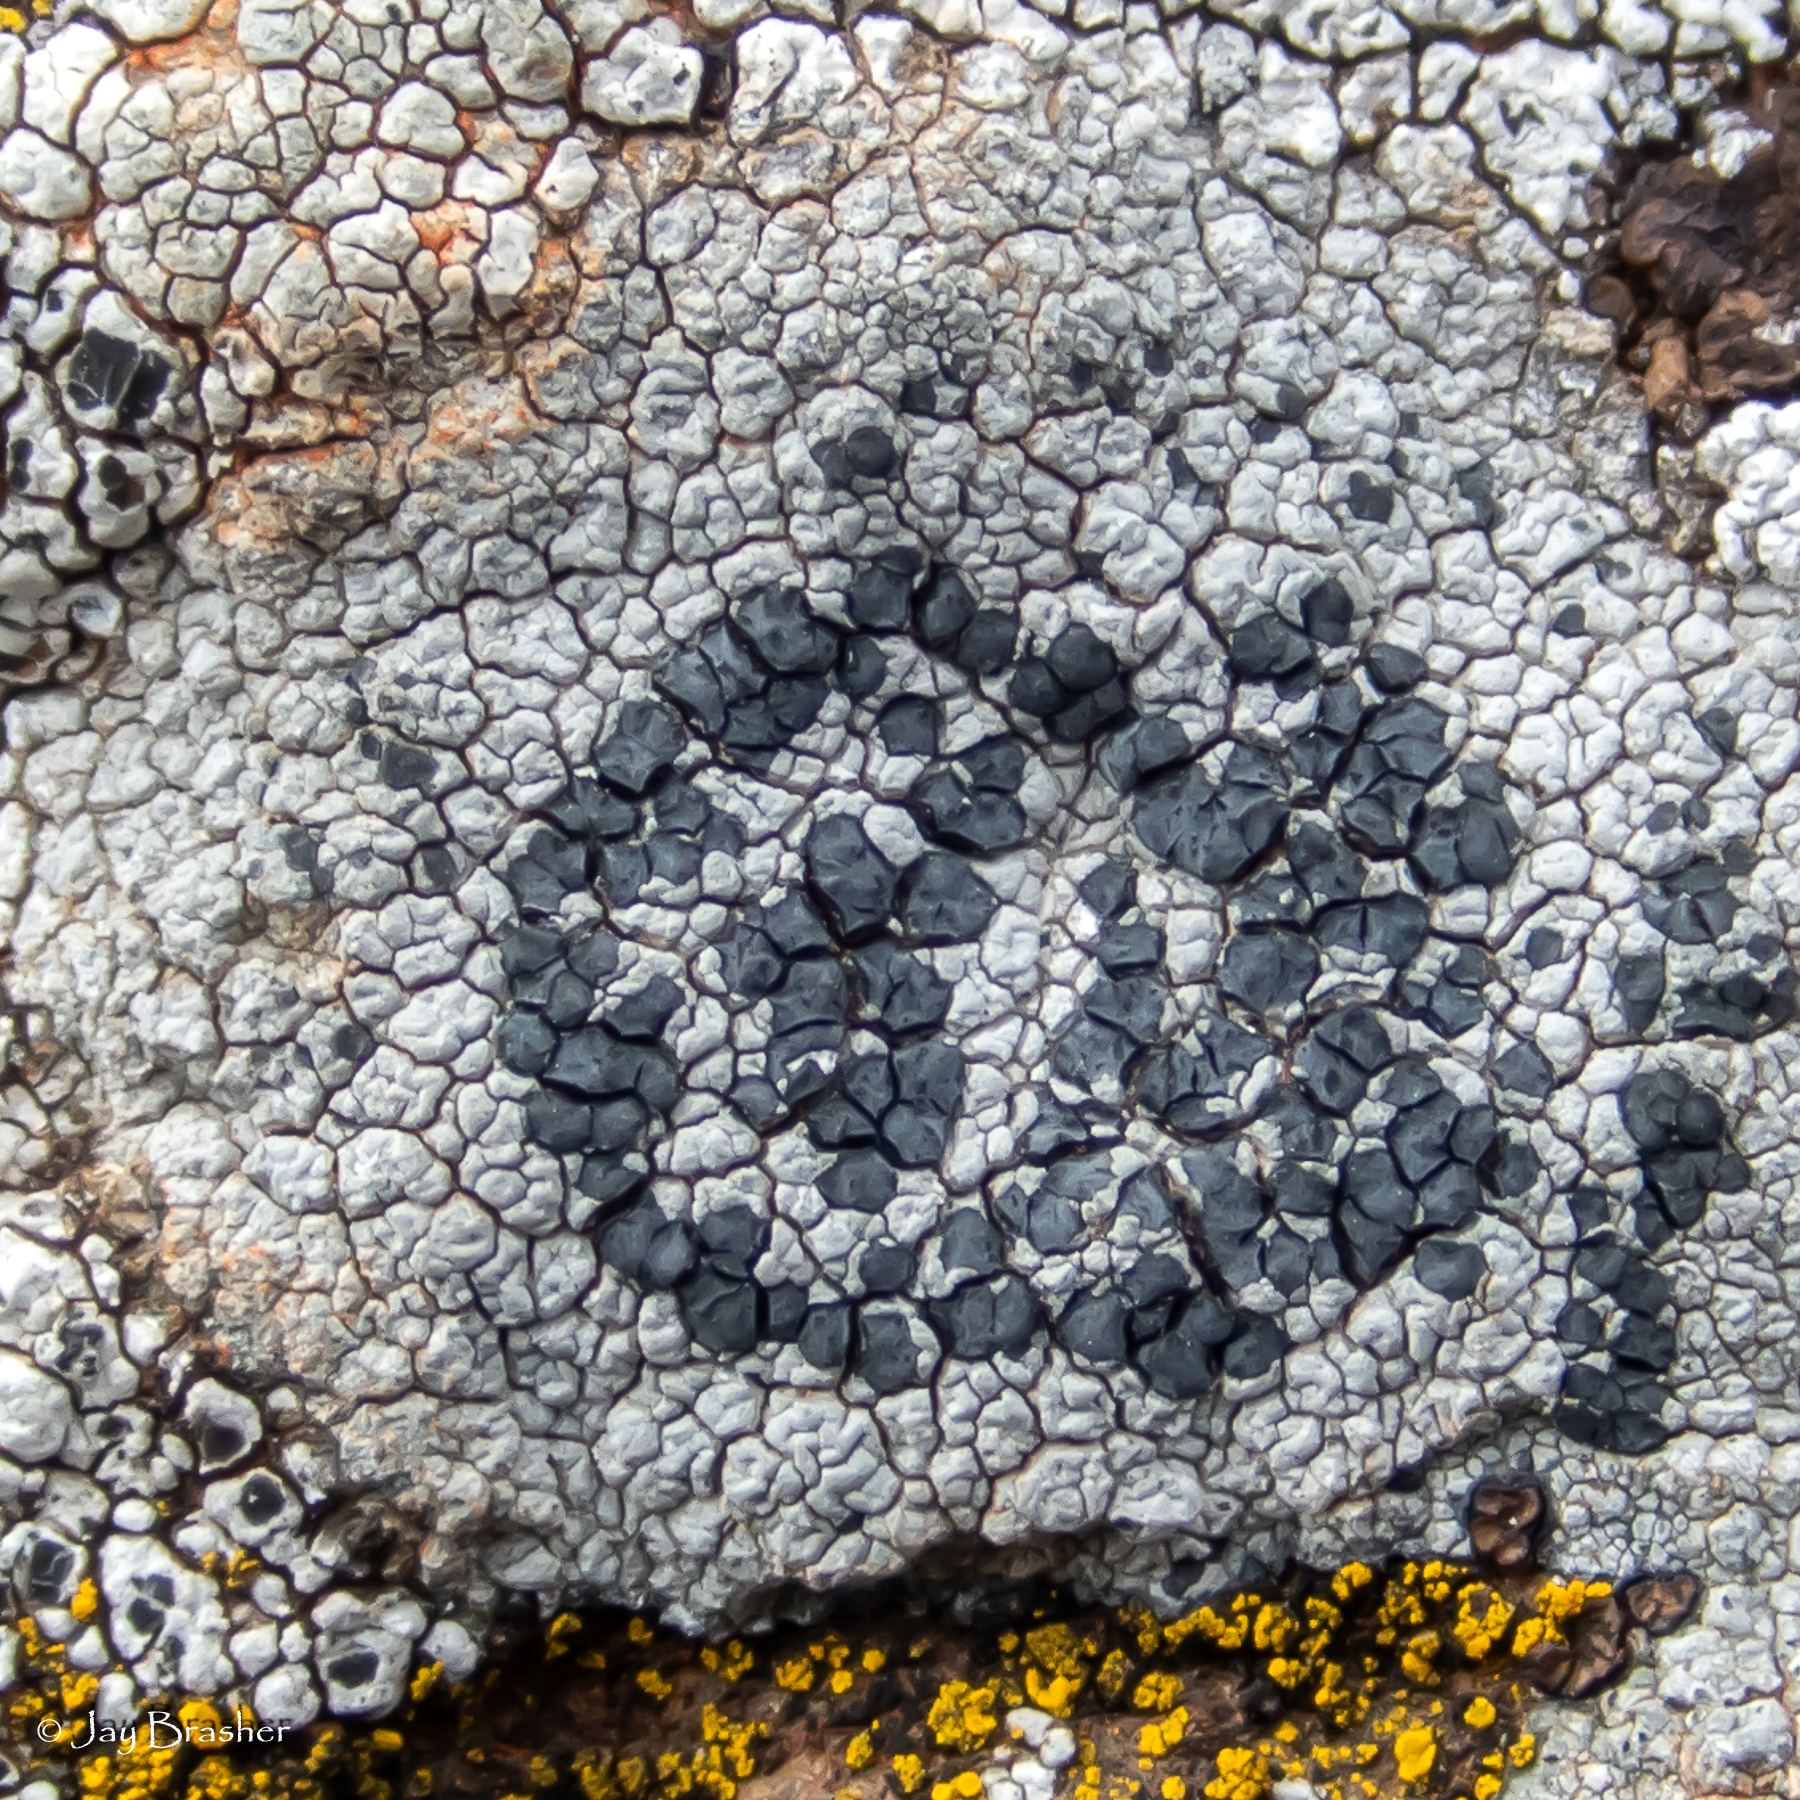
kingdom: Fungi
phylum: Ascomycota
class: Lecanoromycetes
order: Lecideales
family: Lecideaceae
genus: Porpidia
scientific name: Porpidia crustulata
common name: Concentric boulder lichen
